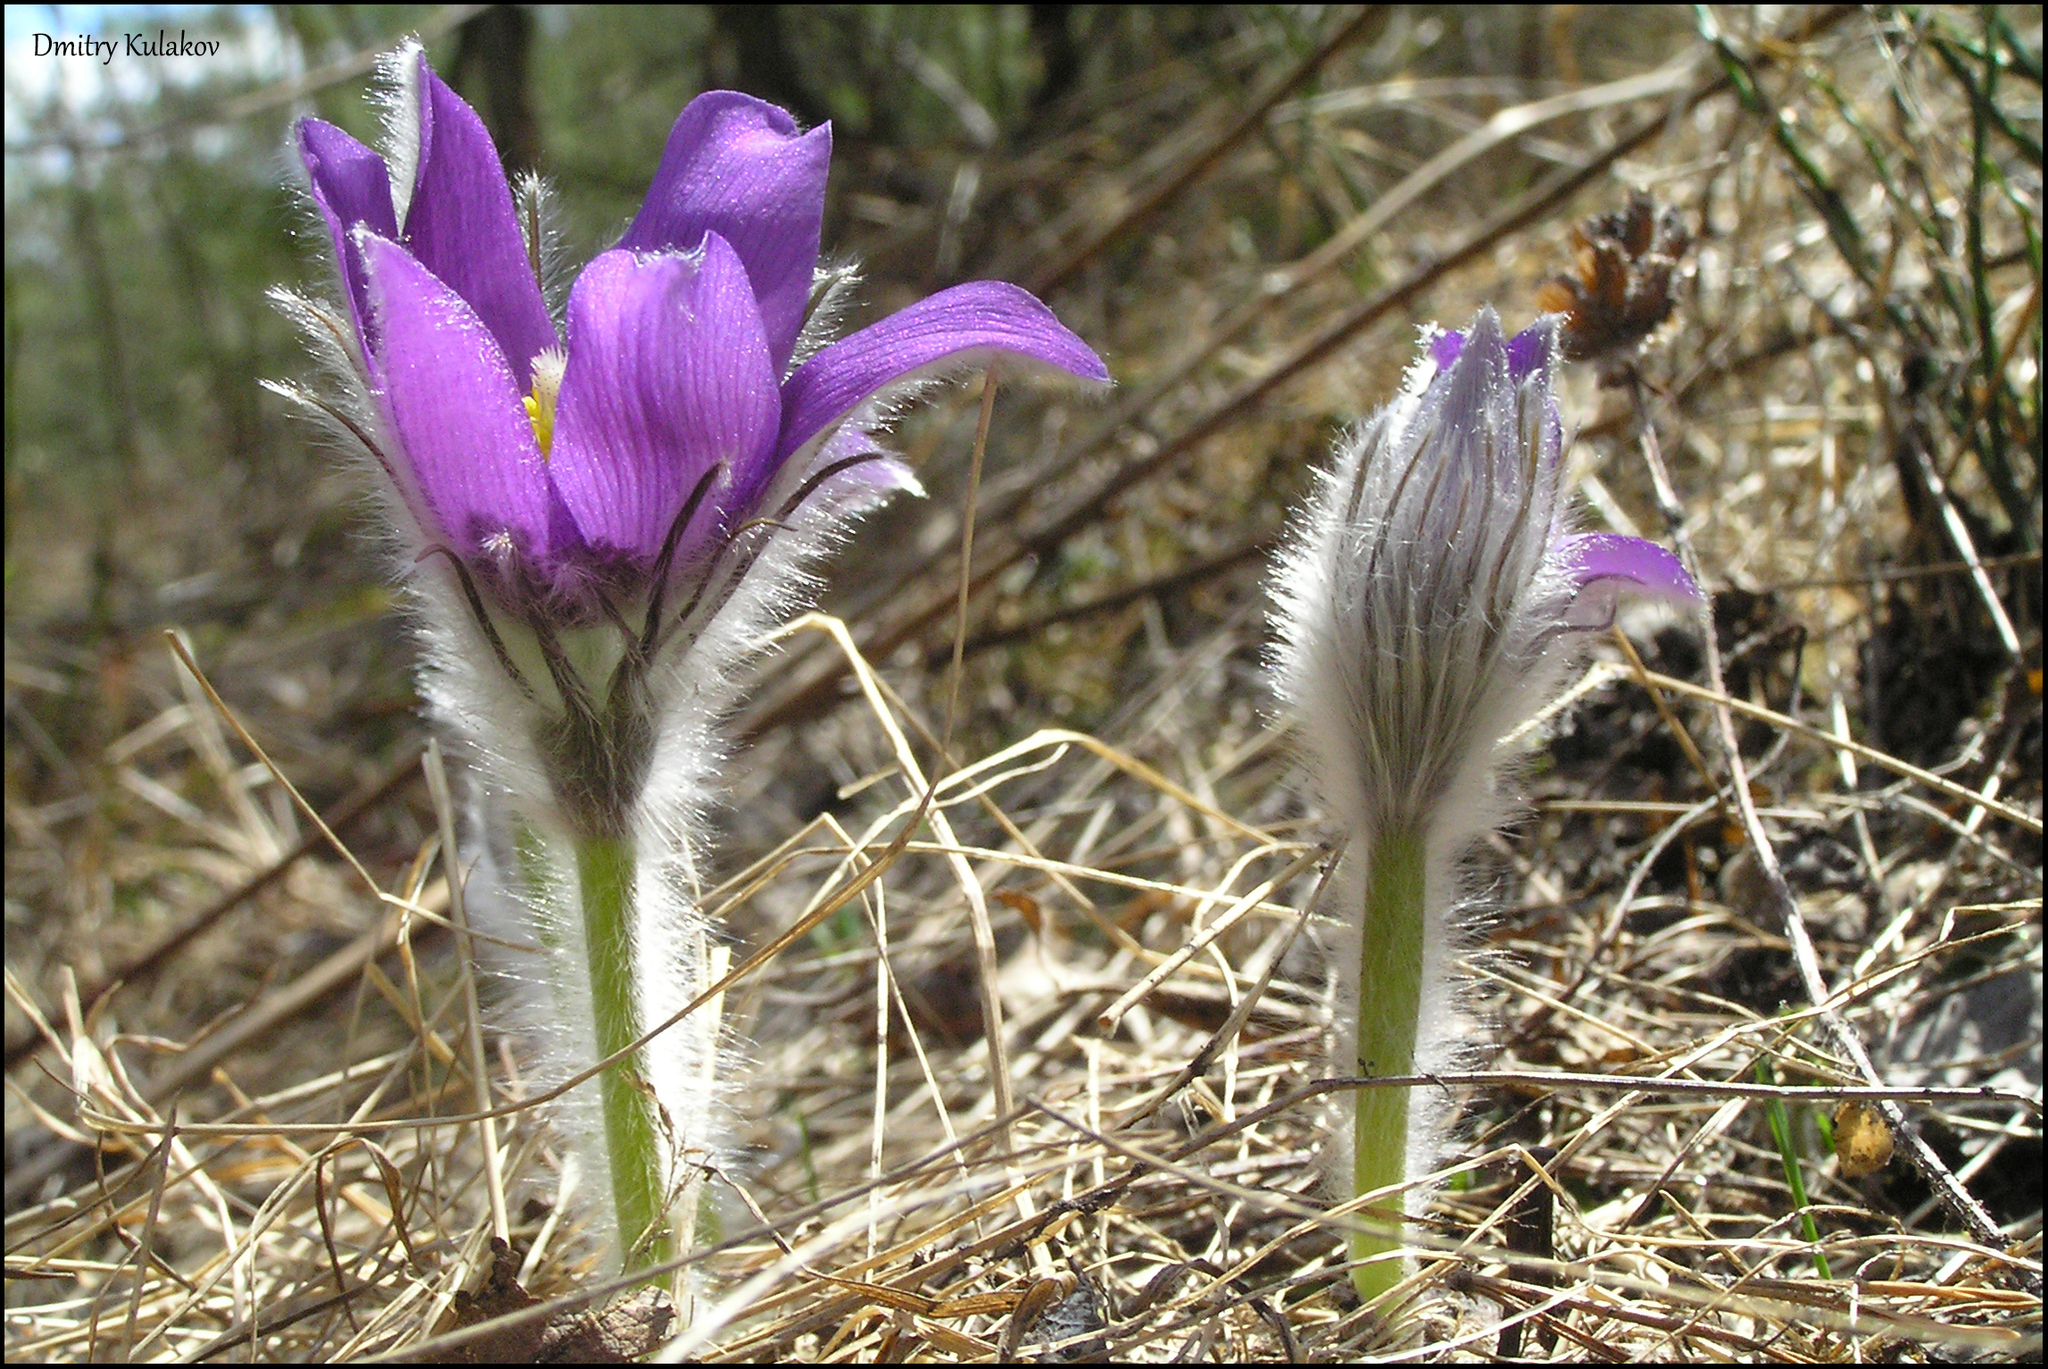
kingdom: Plantae
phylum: Tracheophyta
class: Magnoliopsida
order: Ranunculales
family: Ranunculaceae
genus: Pulsatilla
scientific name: Pulsatilla patens
